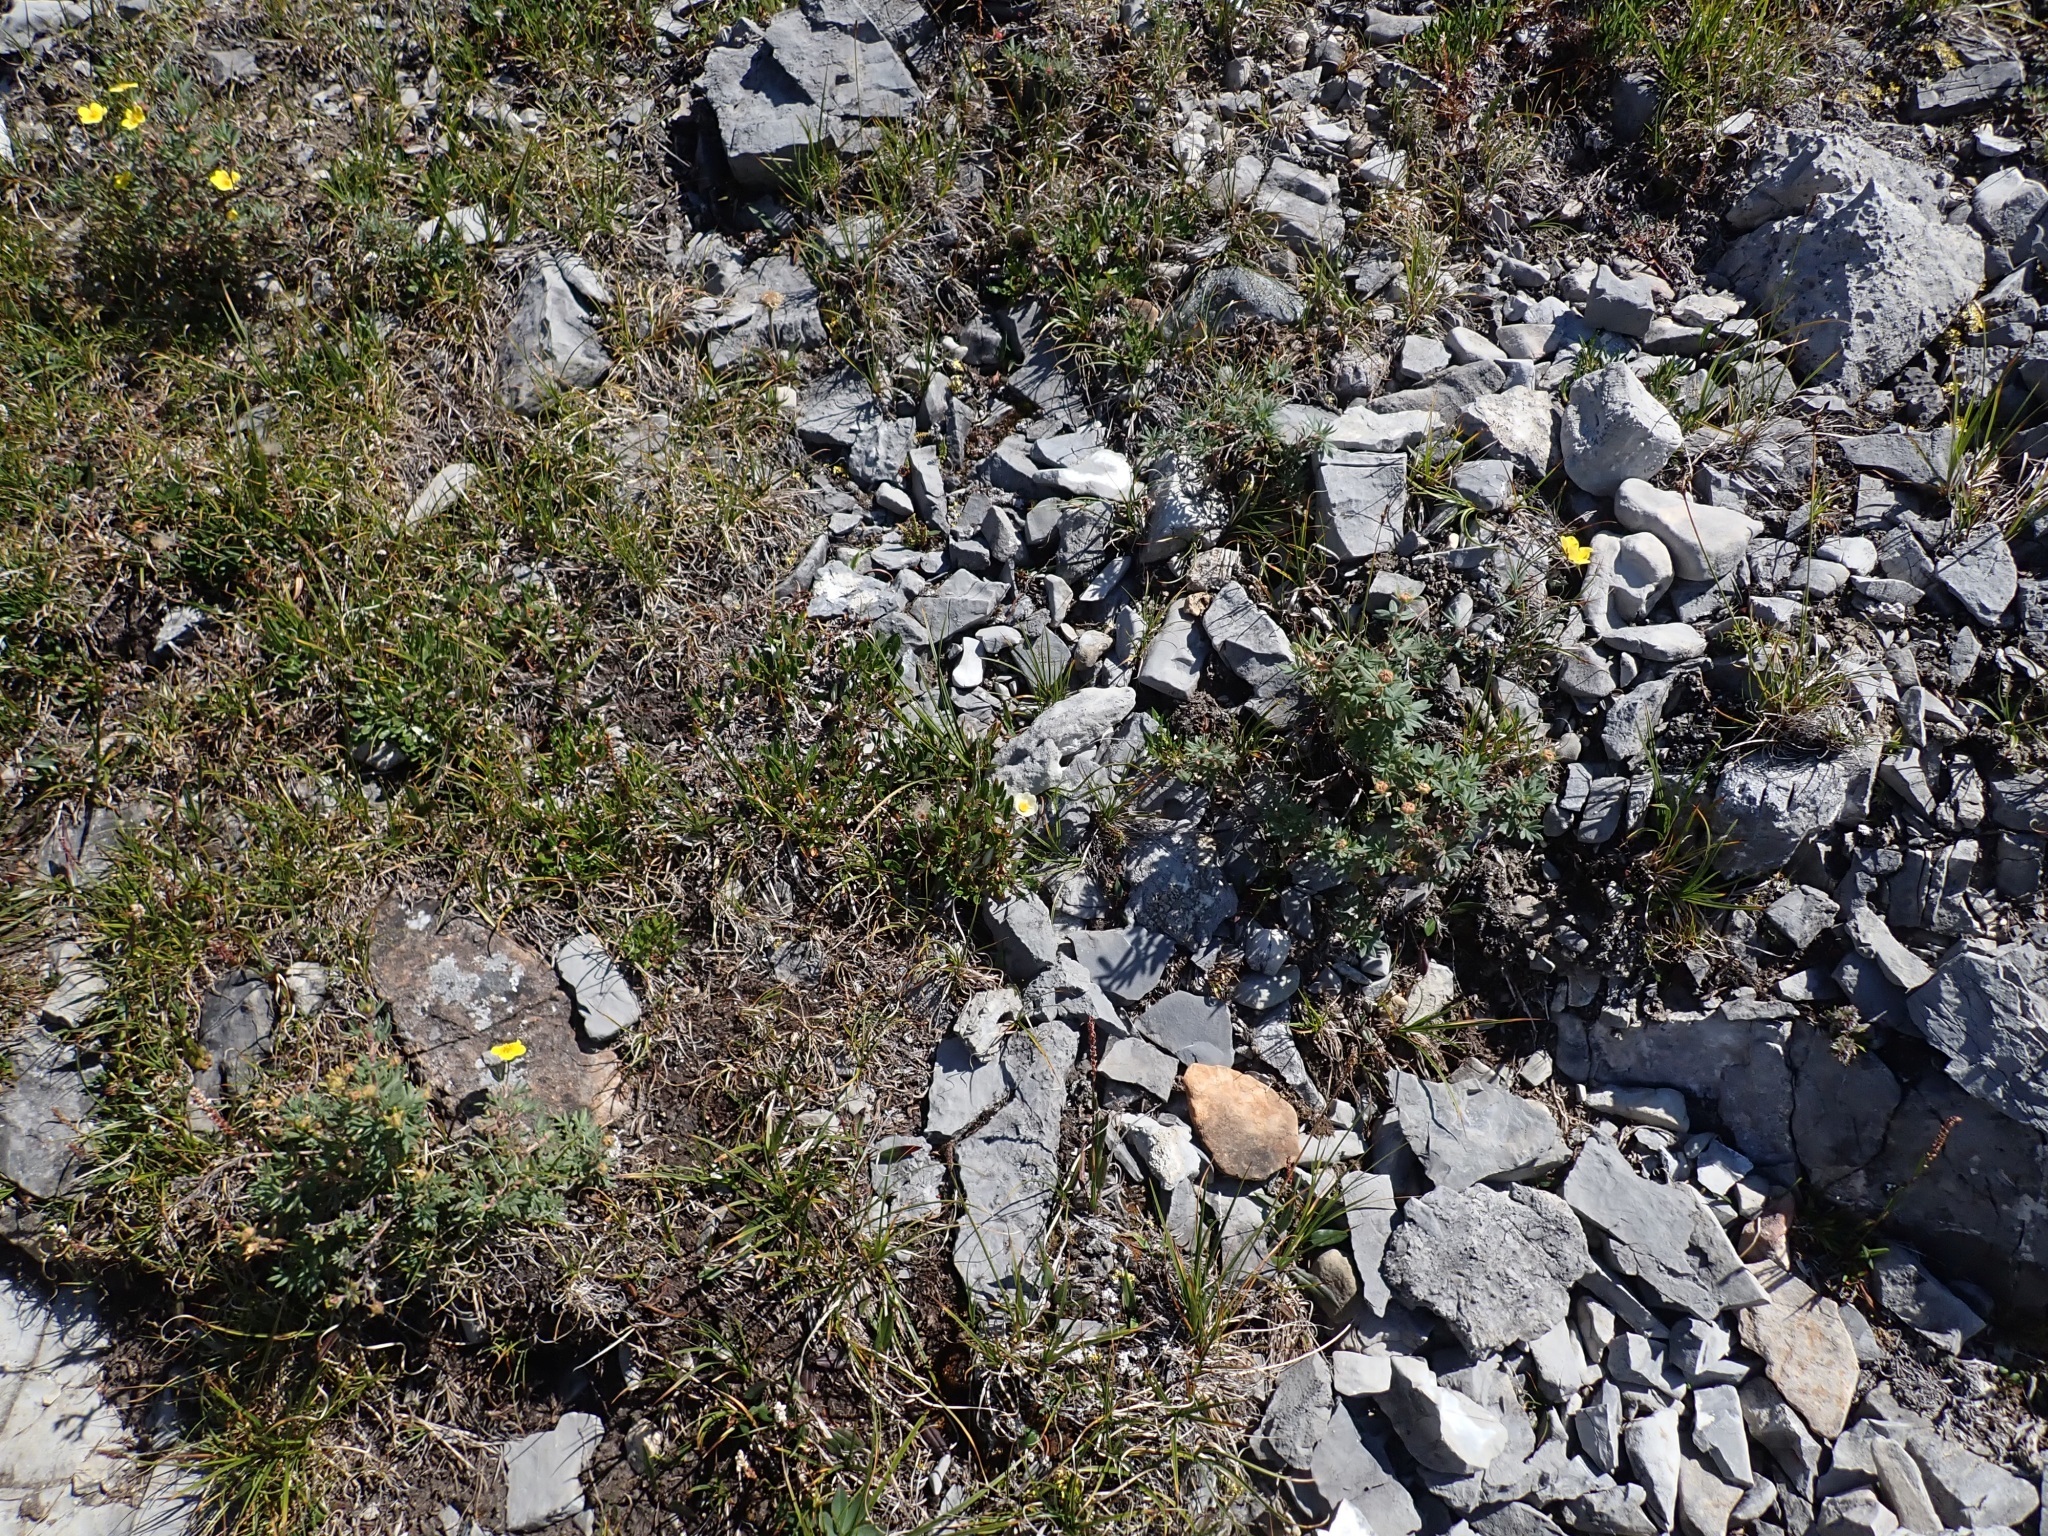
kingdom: Plantae
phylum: Tracheophyta
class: Magnoliopsida
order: Rosales
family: Rosaceae
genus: Dryas
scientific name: Dryas integrifolia
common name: Entire-leaved mountain avens
